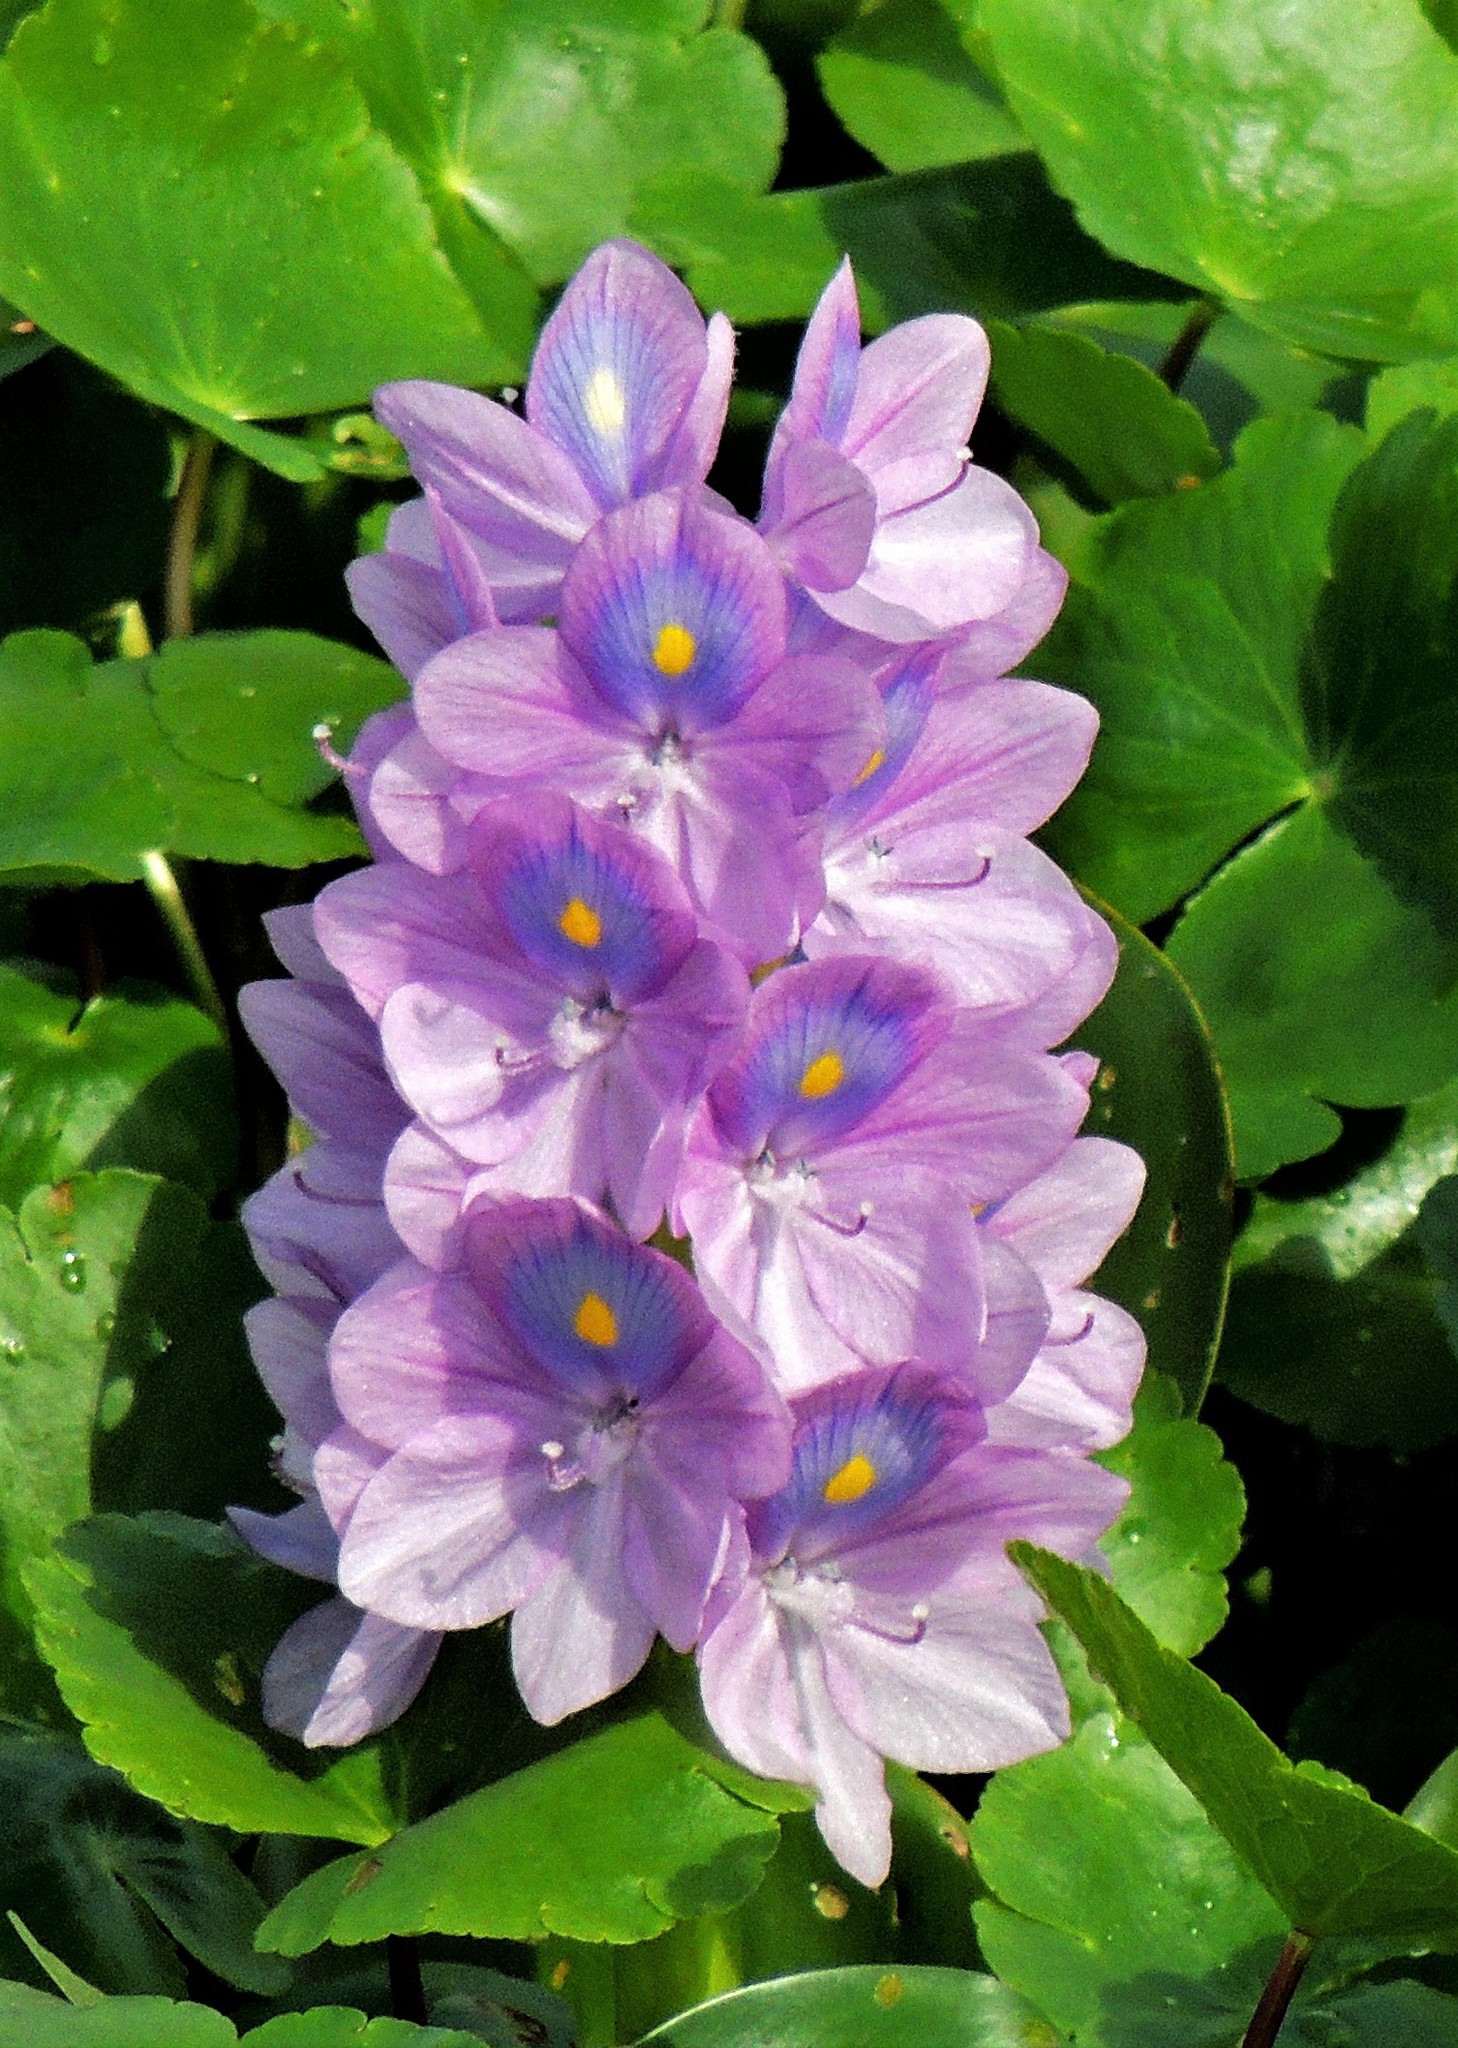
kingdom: Plantae
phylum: Tracheophyta
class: Liliopsida
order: Commelinales
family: Pontederiaceae
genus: Pontederia
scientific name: Pontederia crassipes
